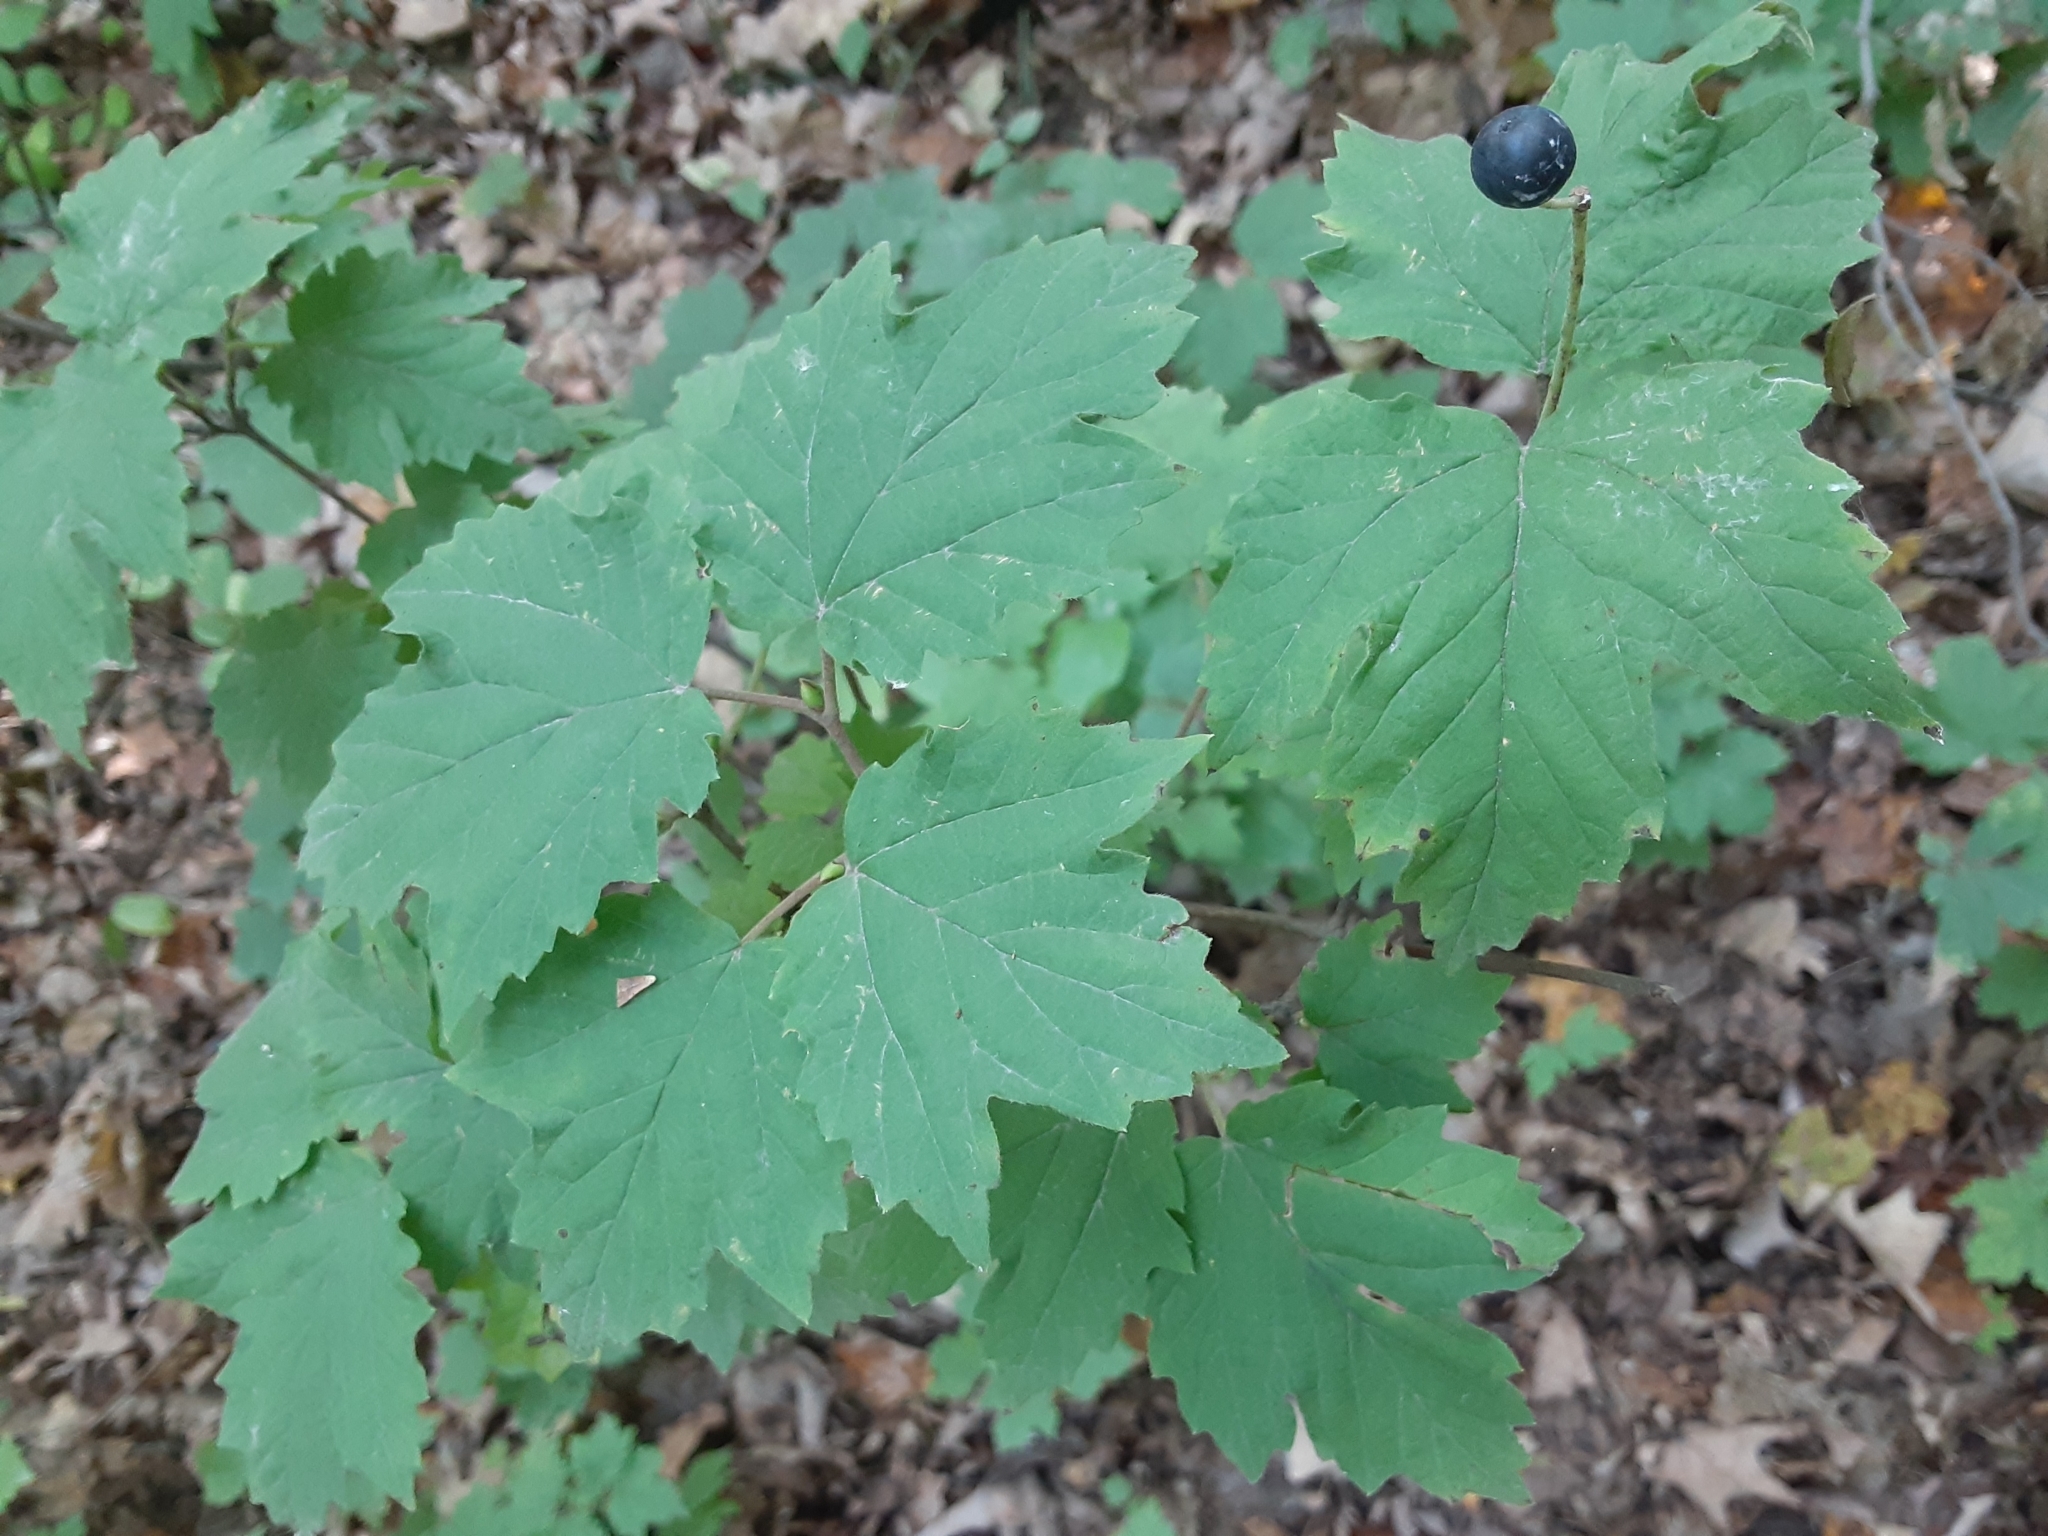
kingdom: Plantae
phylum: Tracheophyta
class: Magnoliopsida
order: Dipsacales
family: Viburnaceae
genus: Viburnum
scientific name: Viburnum acerifolium
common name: Dockmackie
